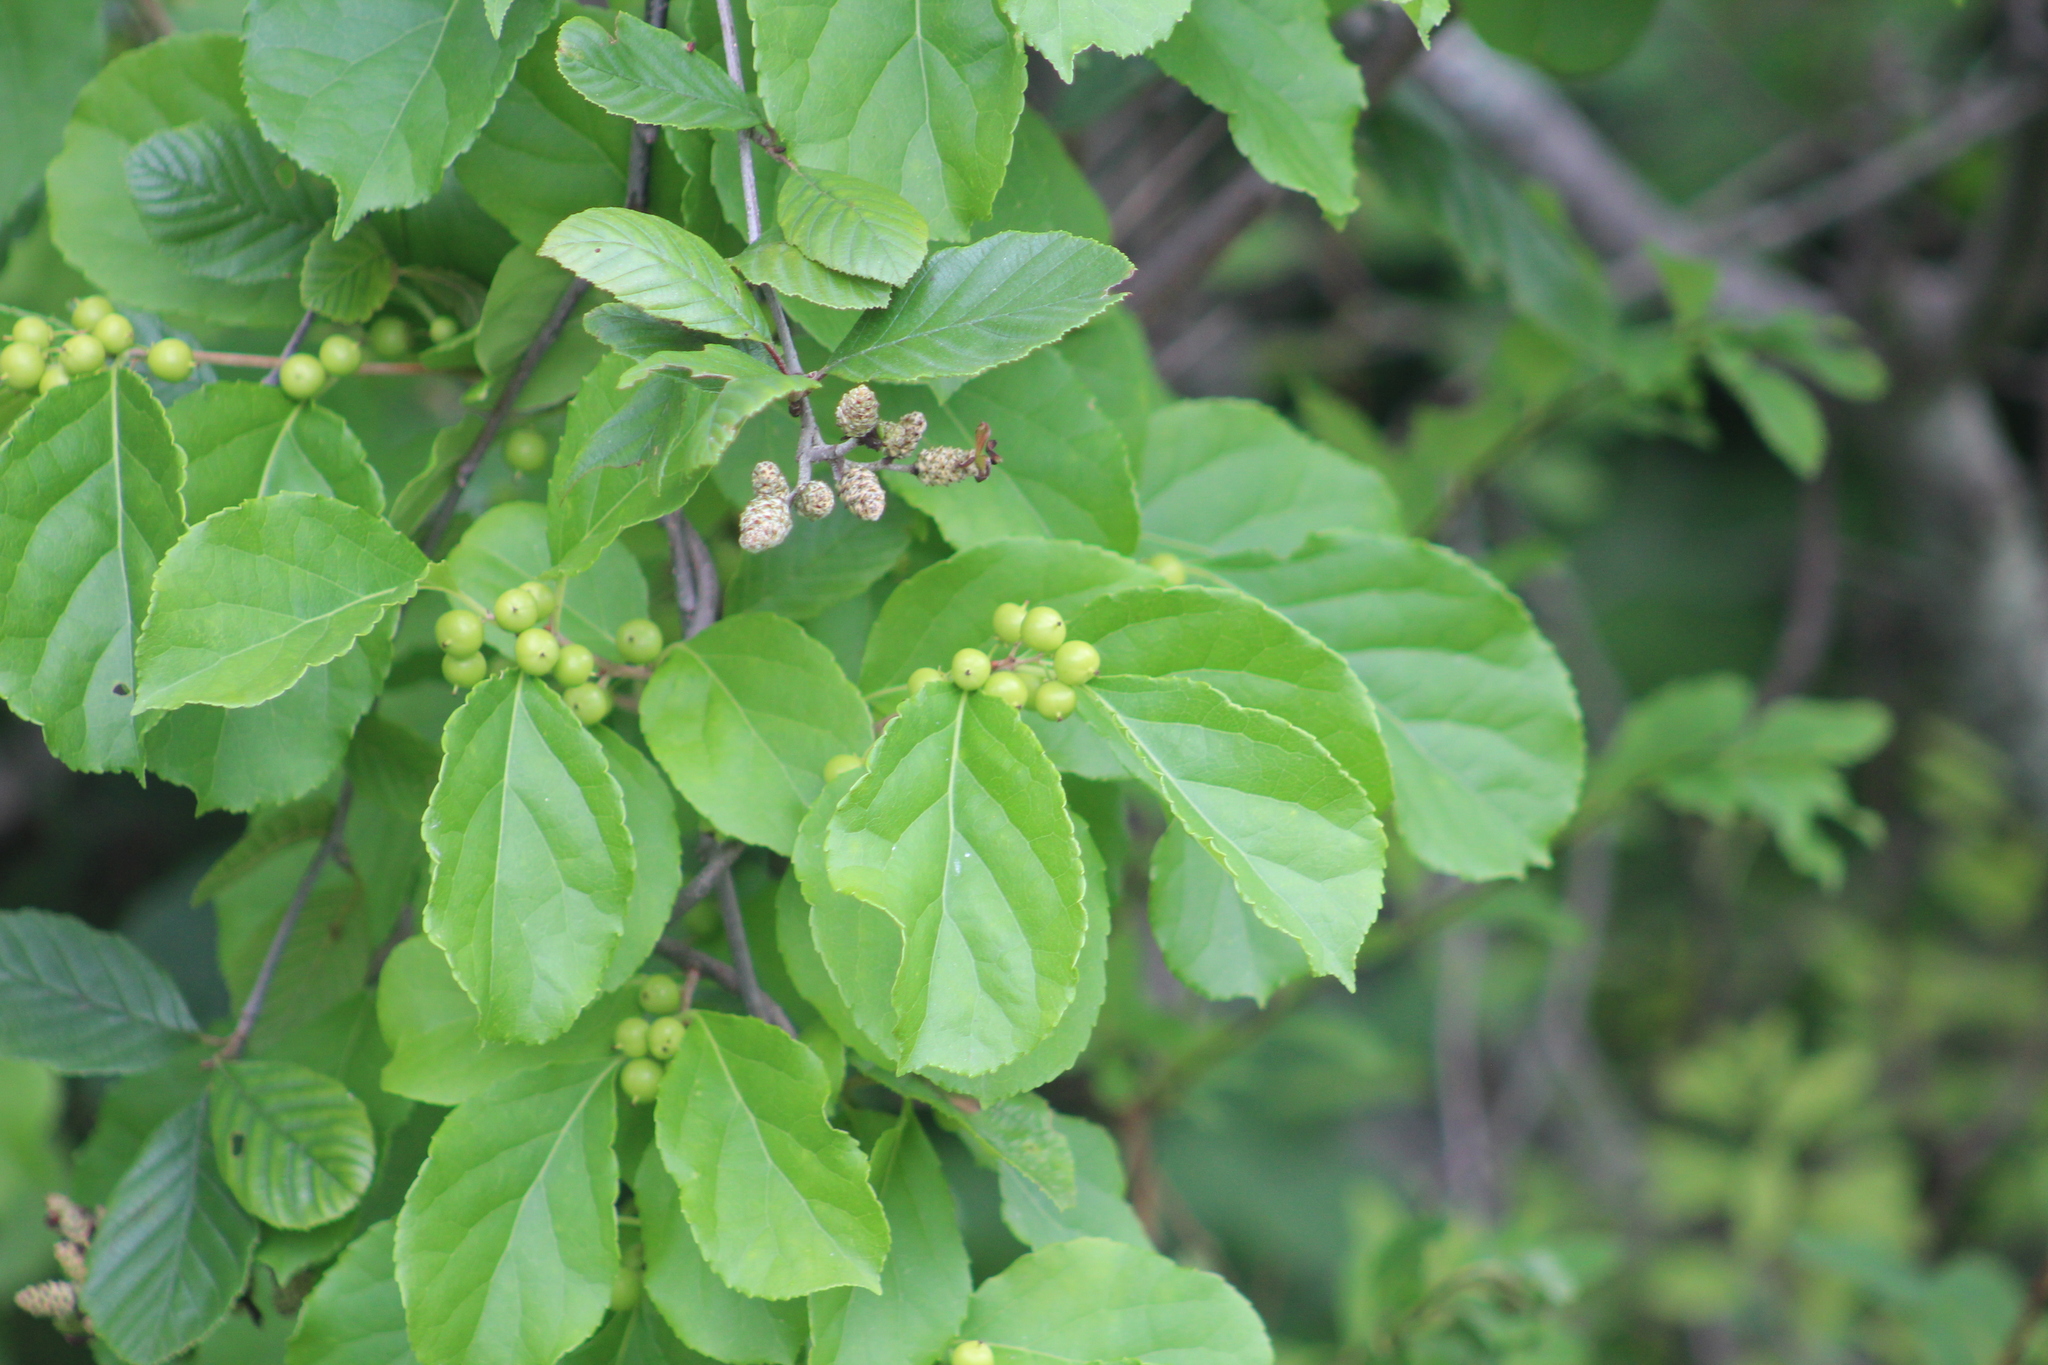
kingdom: Plantae
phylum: Tracheophyta
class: Magnoliopsida
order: Celastrales
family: Celastraceae
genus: Celastrus
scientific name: Celastrus orbiculatus
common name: Oriental bittersweet
